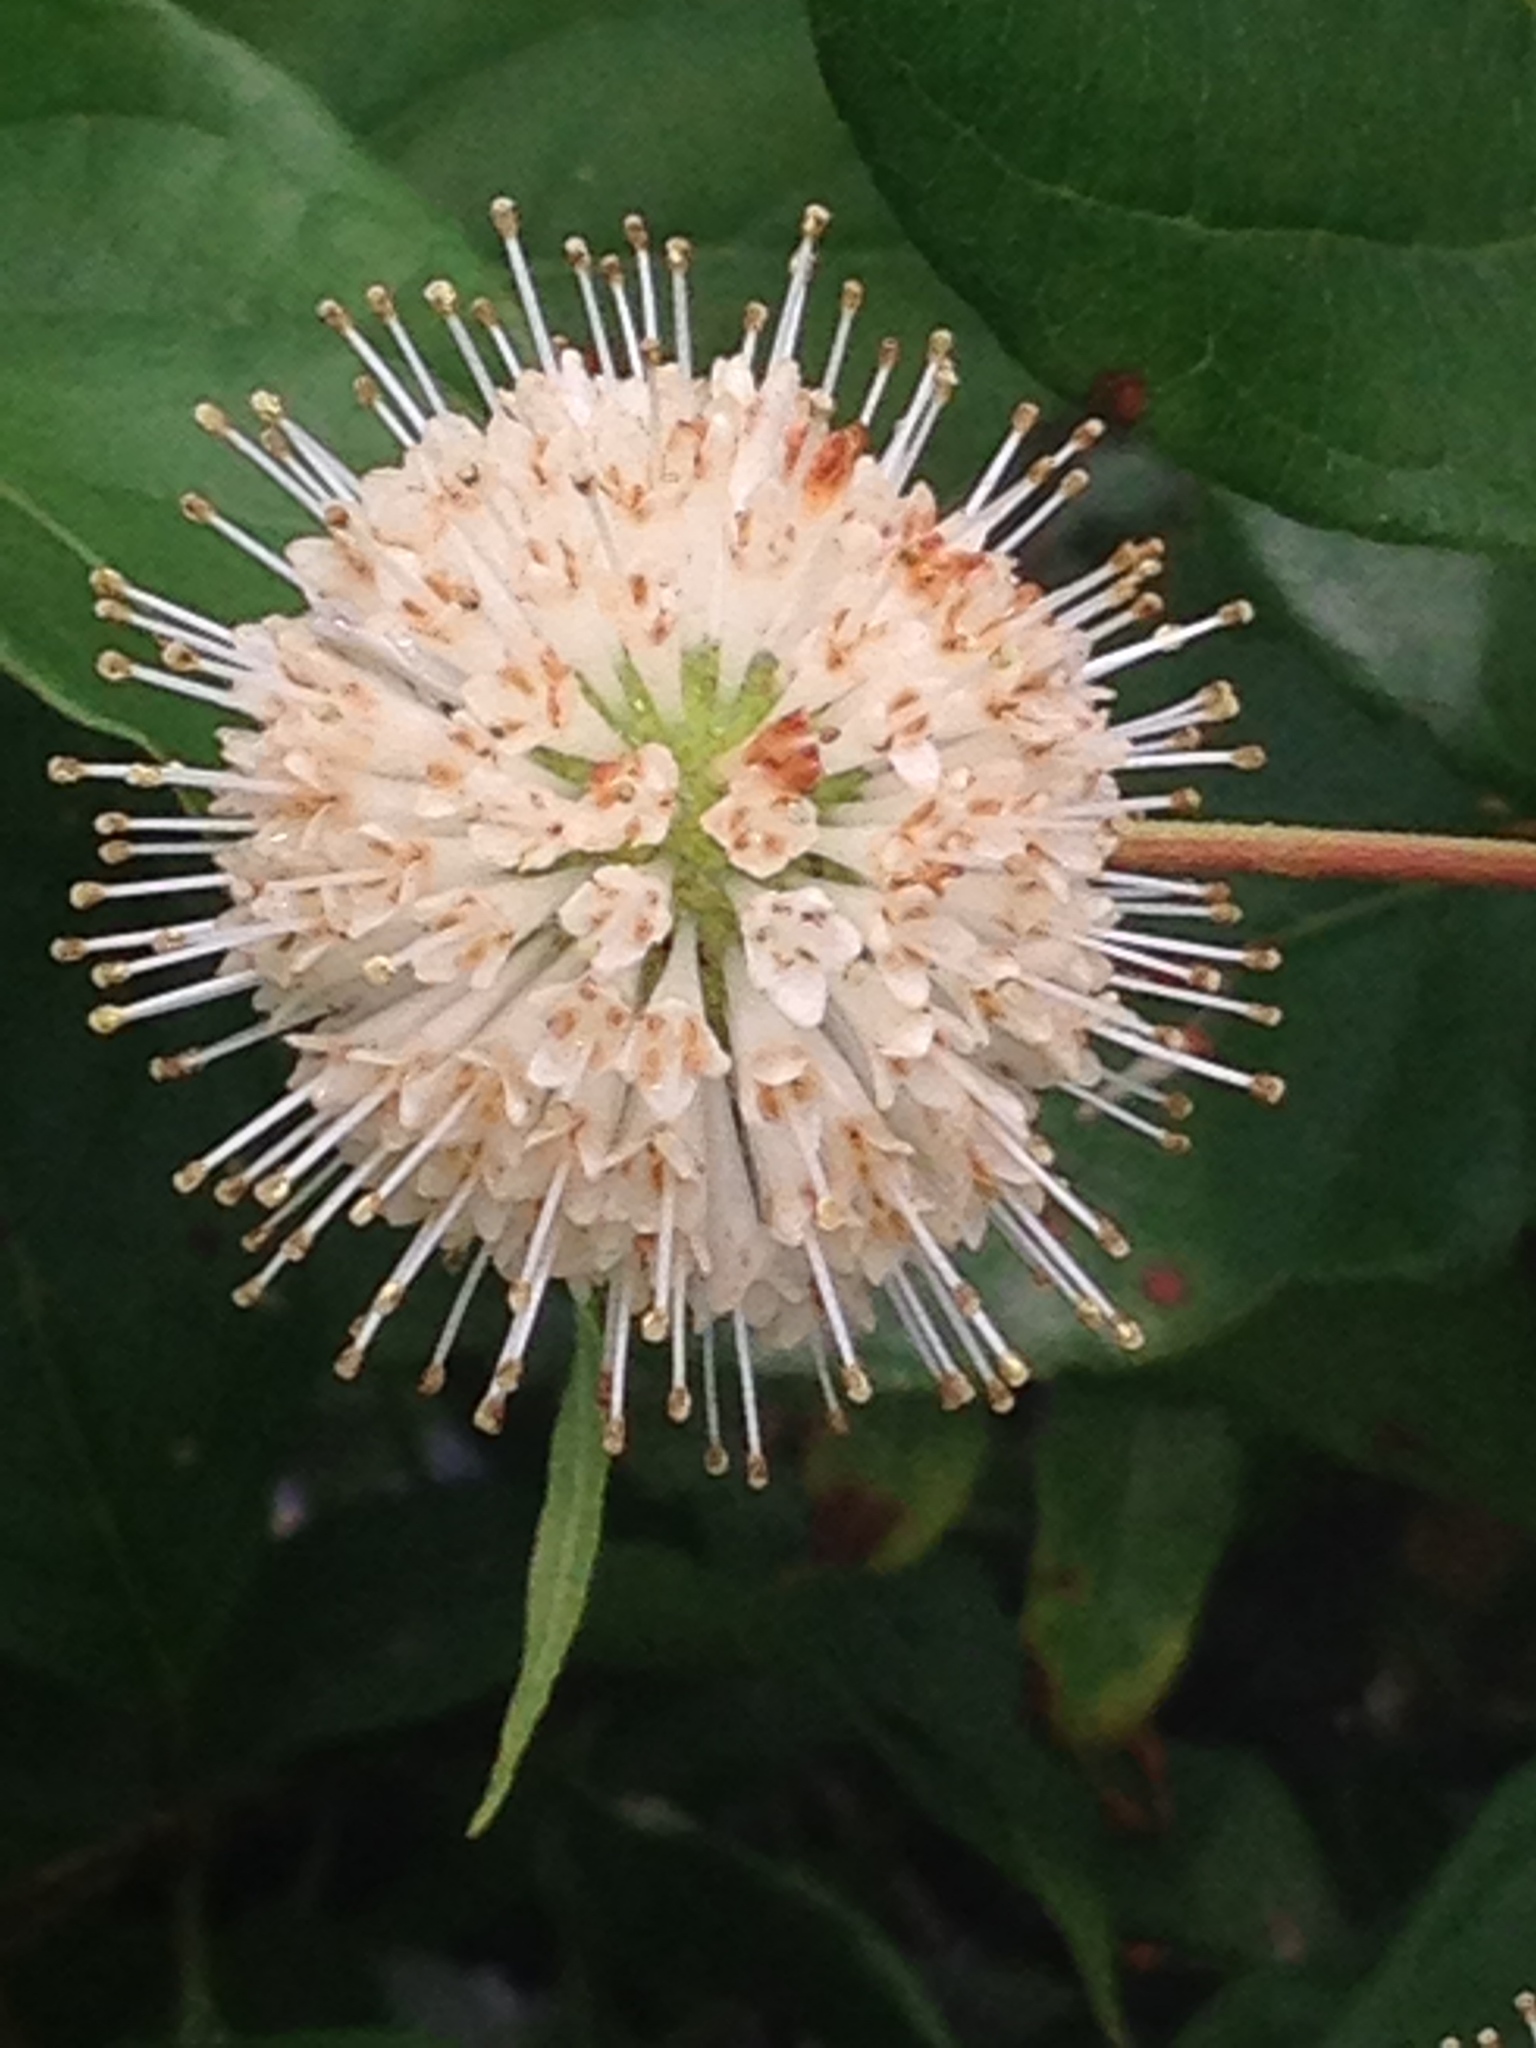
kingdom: Plantae
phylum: Tracheophyta
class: Magnoliopsida
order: Gentianales
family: Rubiaceae
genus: Cephalanthus
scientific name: Cephalanthus occidentalis
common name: Button-willow
